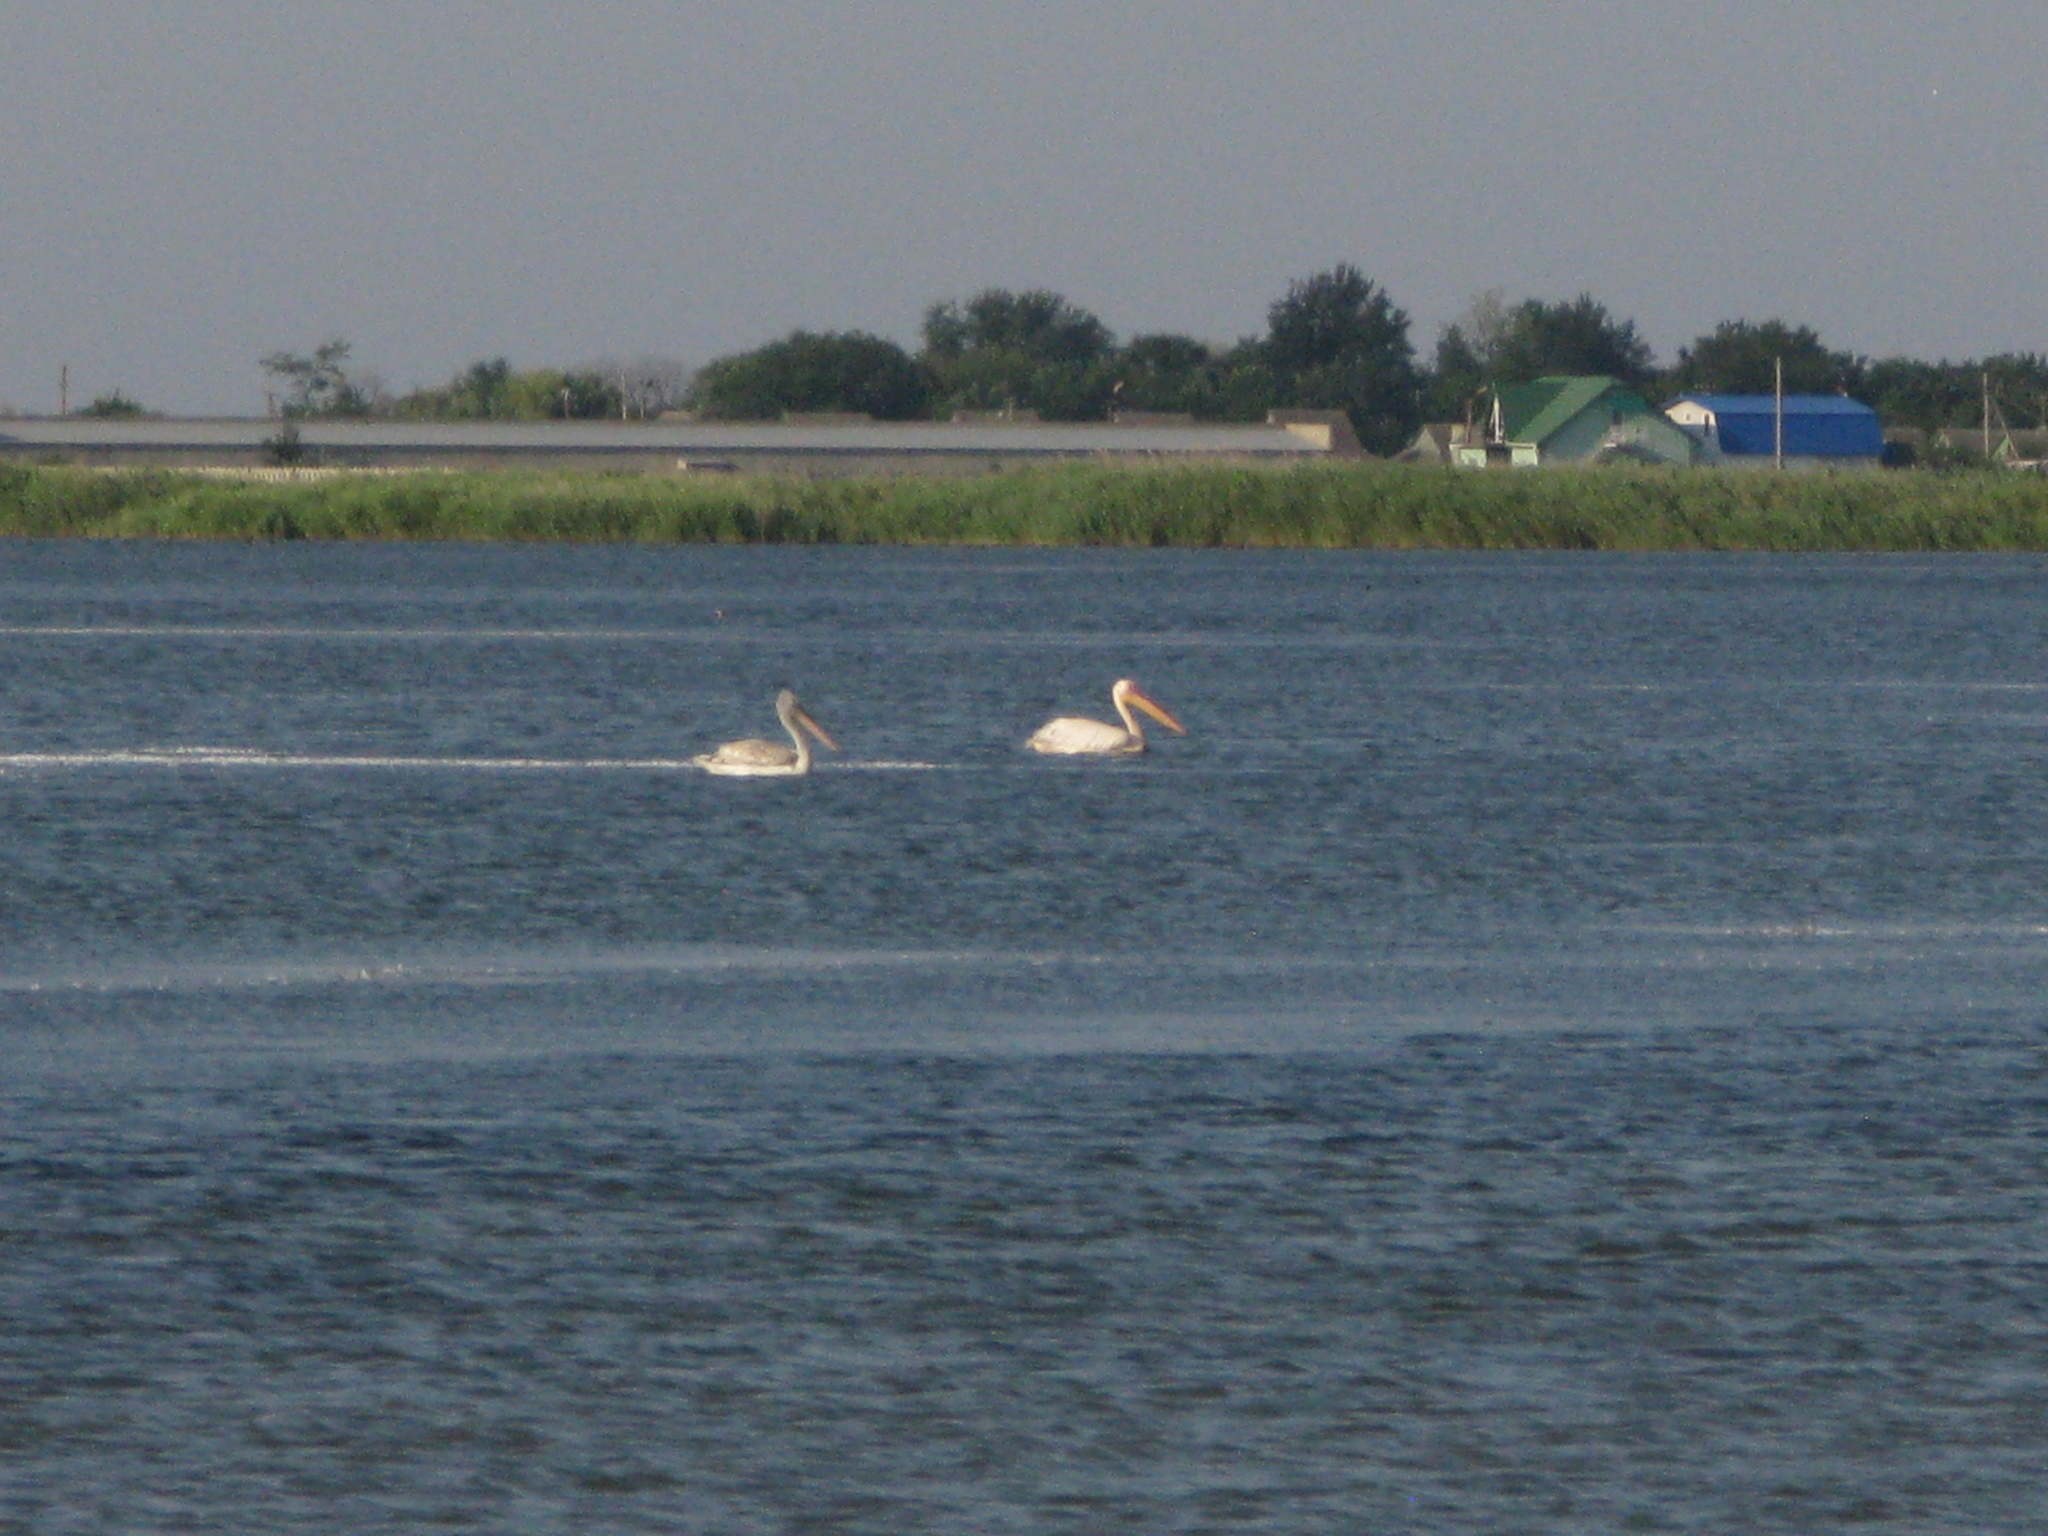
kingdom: Animalia
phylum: Chordata
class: Aves
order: Pelecaniformes
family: Pelecanidae
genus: Pelecanus
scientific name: Pelecanus onocrotalus
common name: Great white pelican
